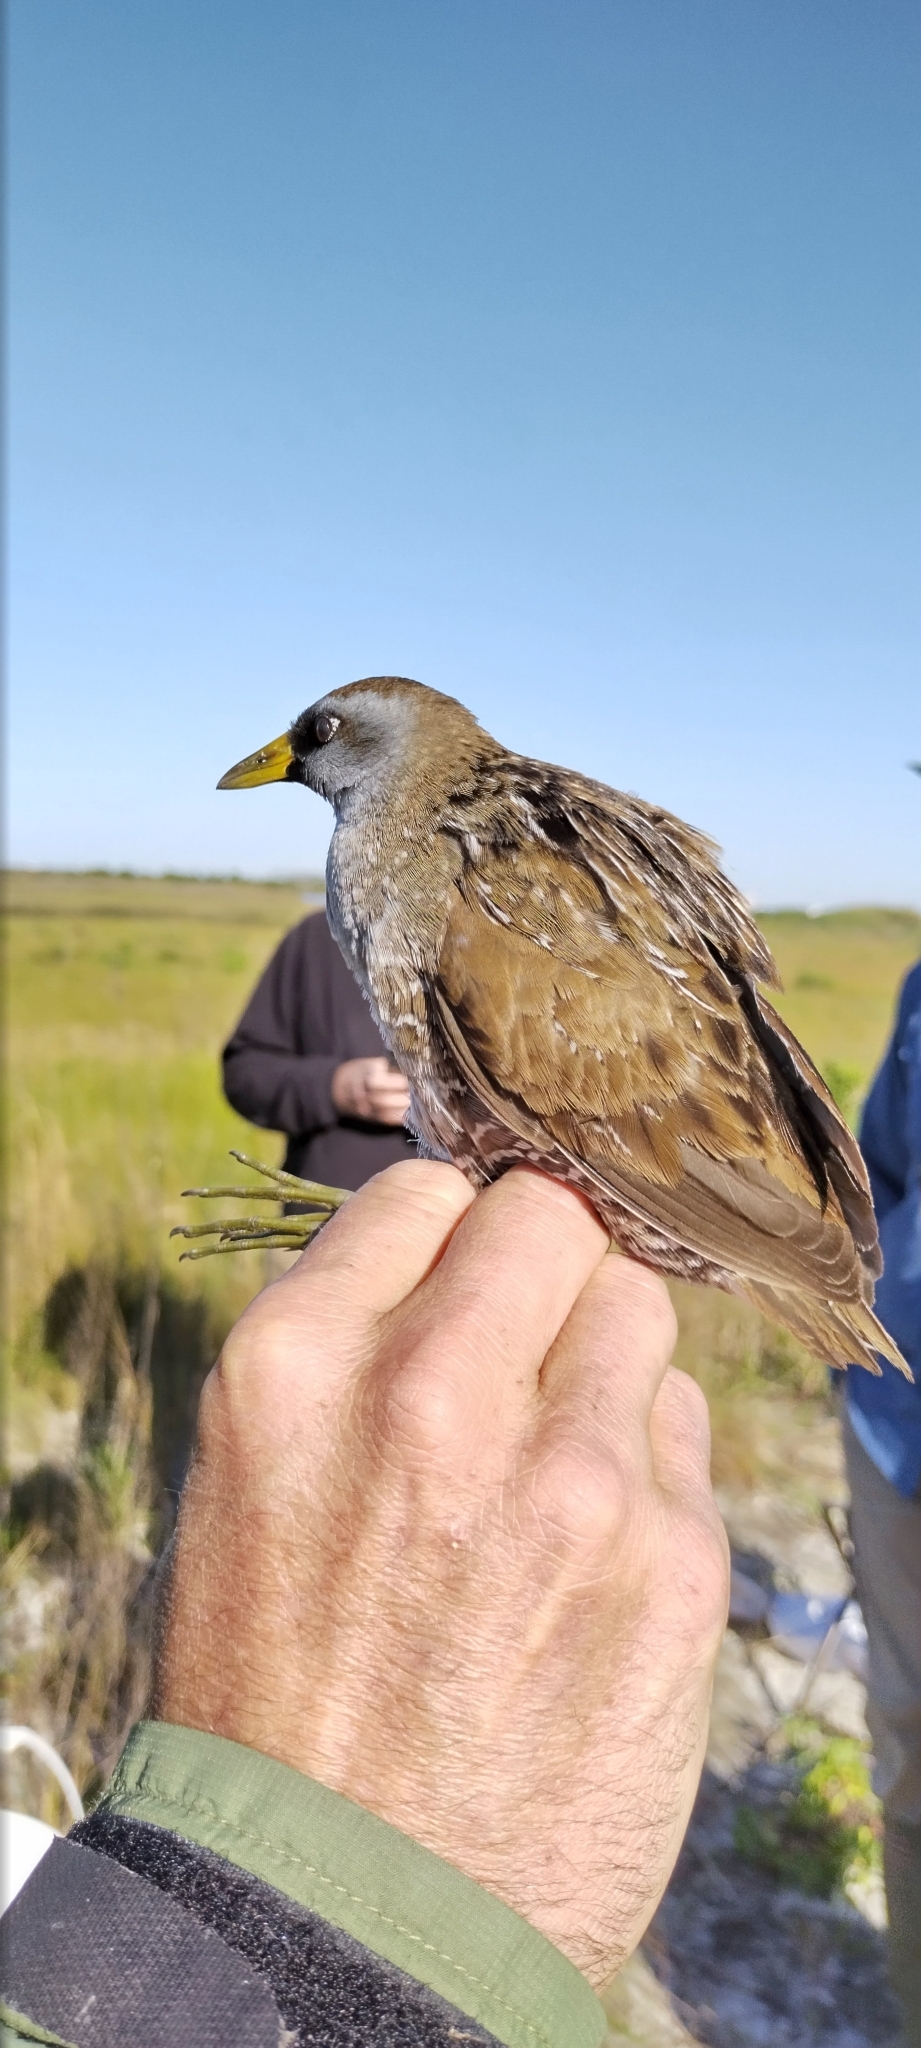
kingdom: Animalia
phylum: Chordata
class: Aves
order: Gruiformes
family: Rallidae
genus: Porzana
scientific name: Porzana carolina
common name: Sora
